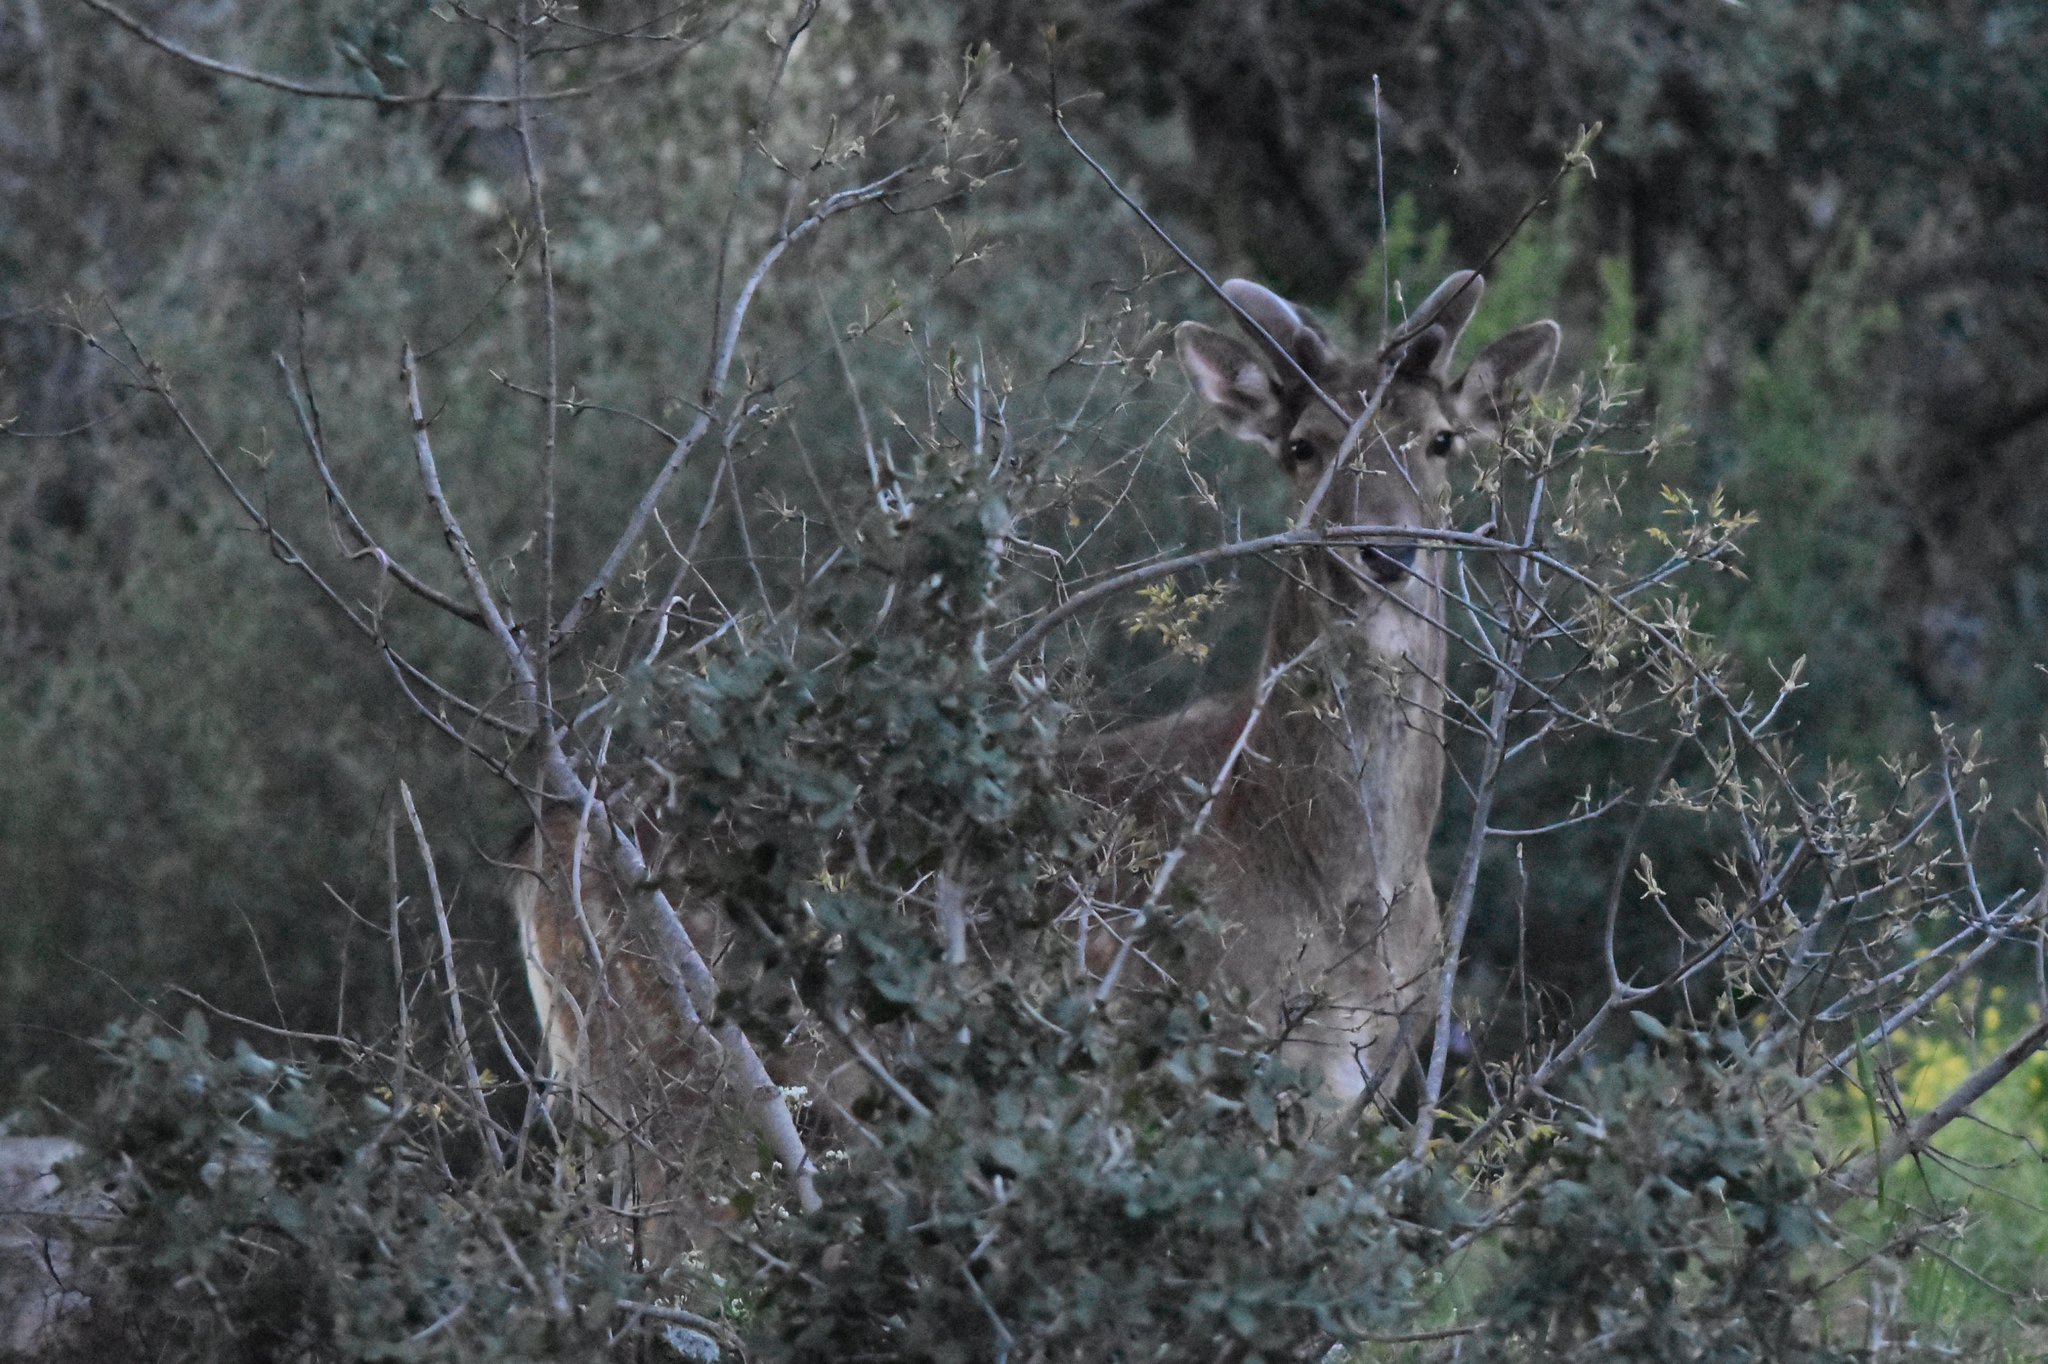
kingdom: Animalia
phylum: Chordata
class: Mammalia
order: Artiodactyla
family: Cervidae
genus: Dama
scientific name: Dama dama
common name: Fallow deer
